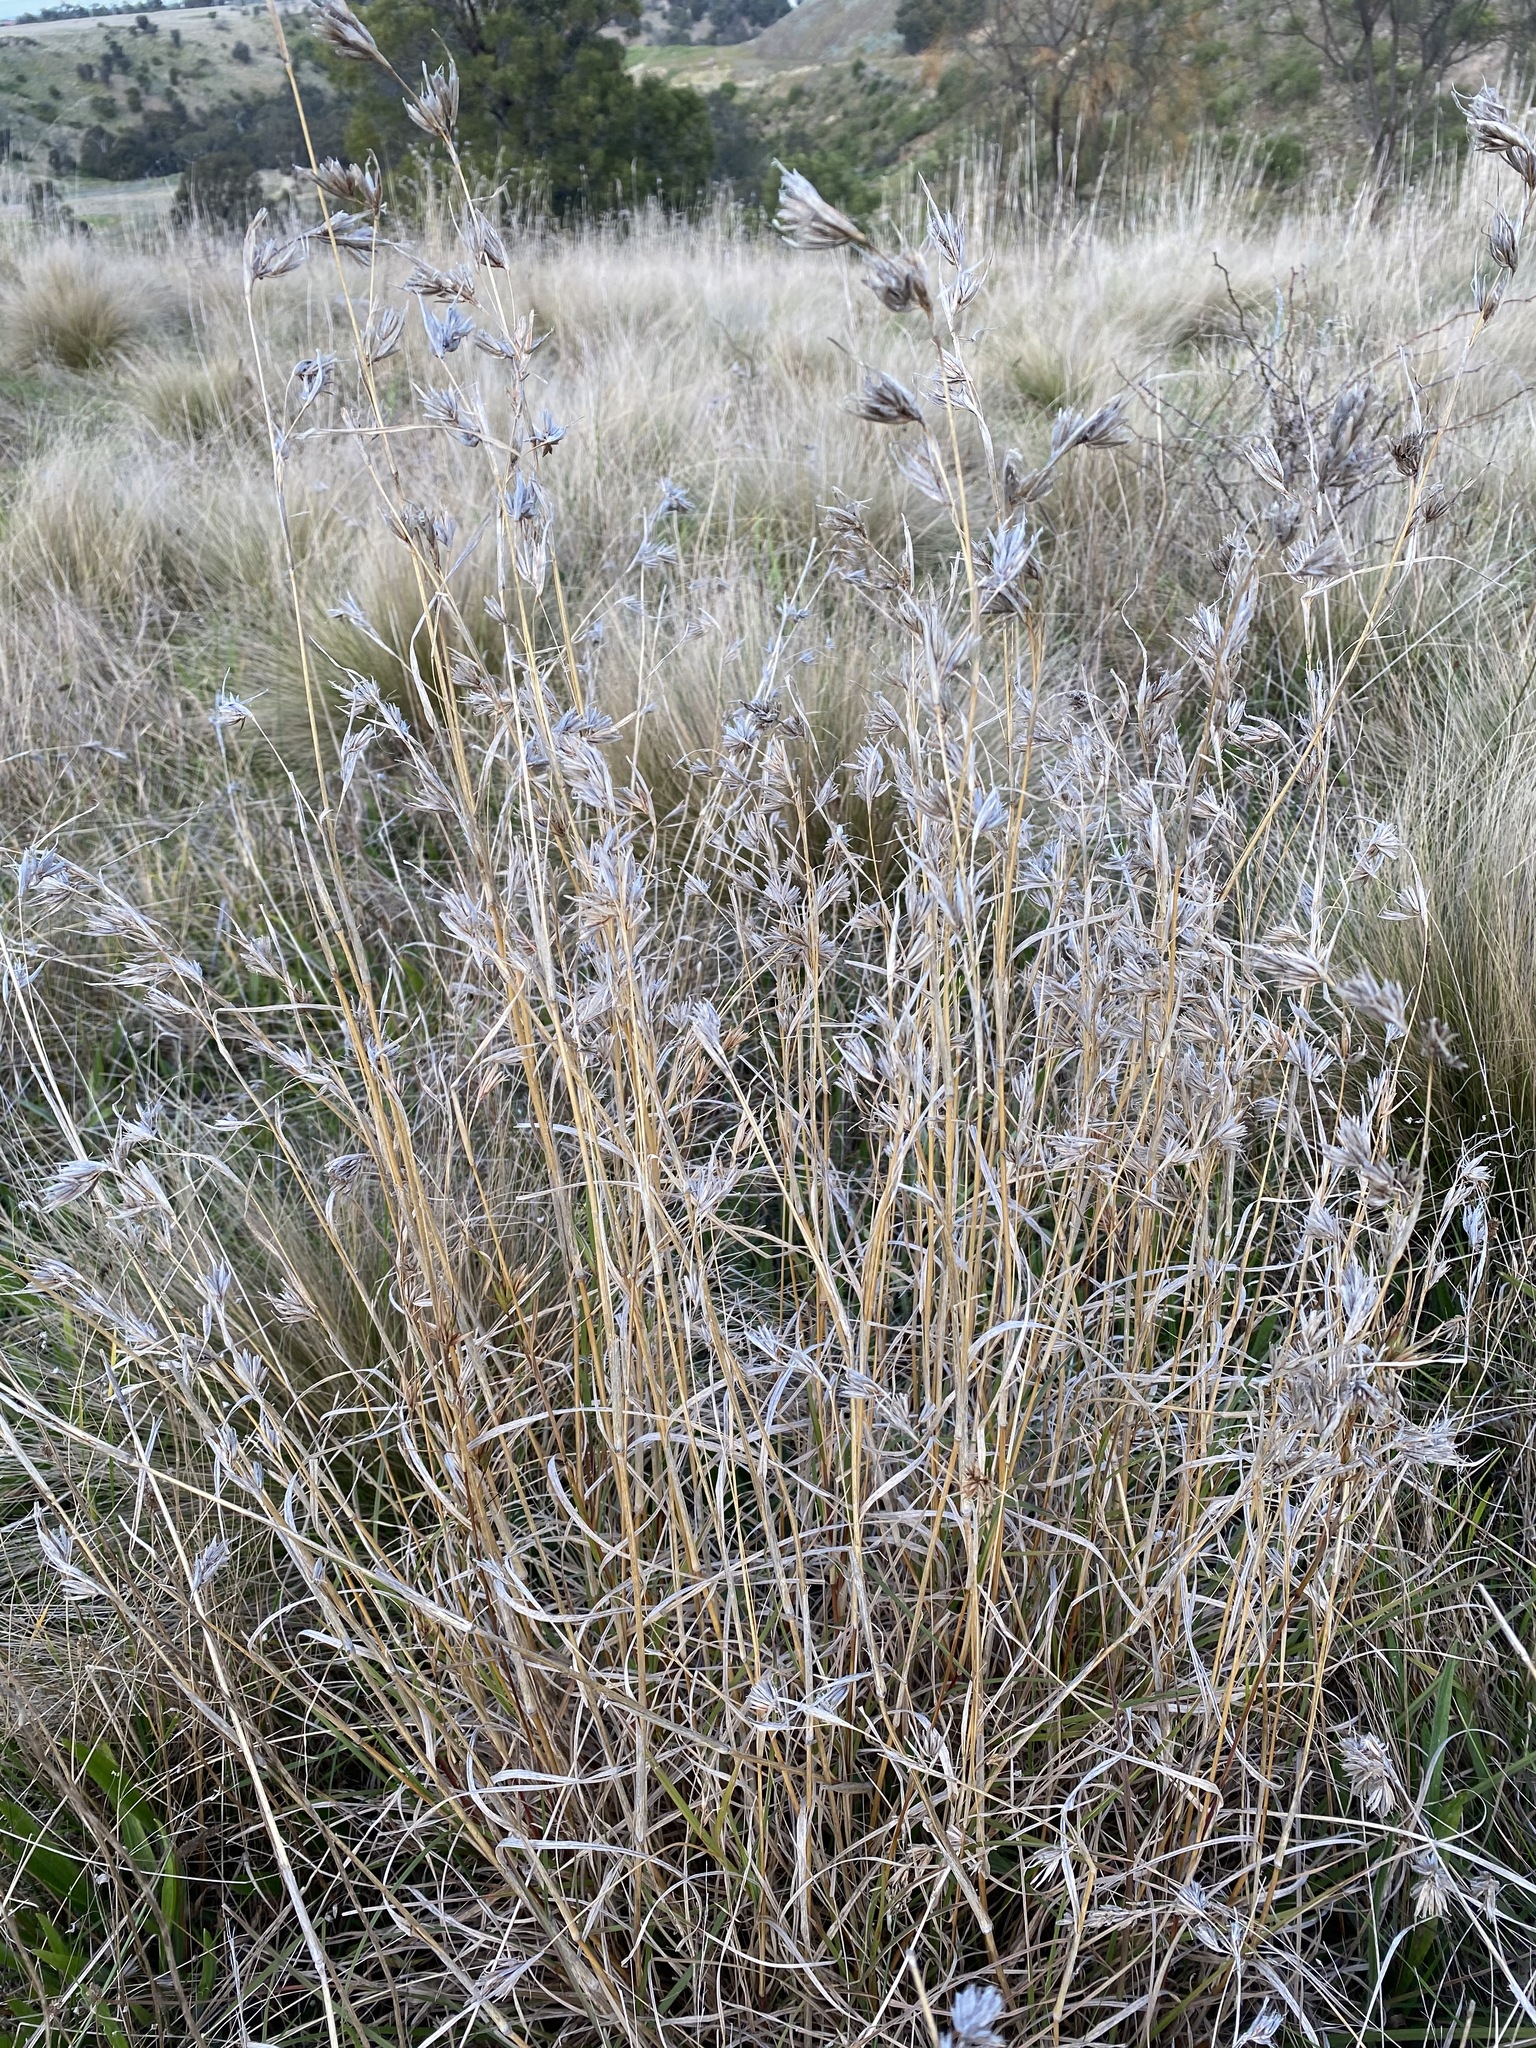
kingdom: Plantae
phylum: Tracheophyta
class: Liliopsida
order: Poales
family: Poaceae
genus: Themeda
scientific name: Themeda triandra
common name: Kangaroo grass
